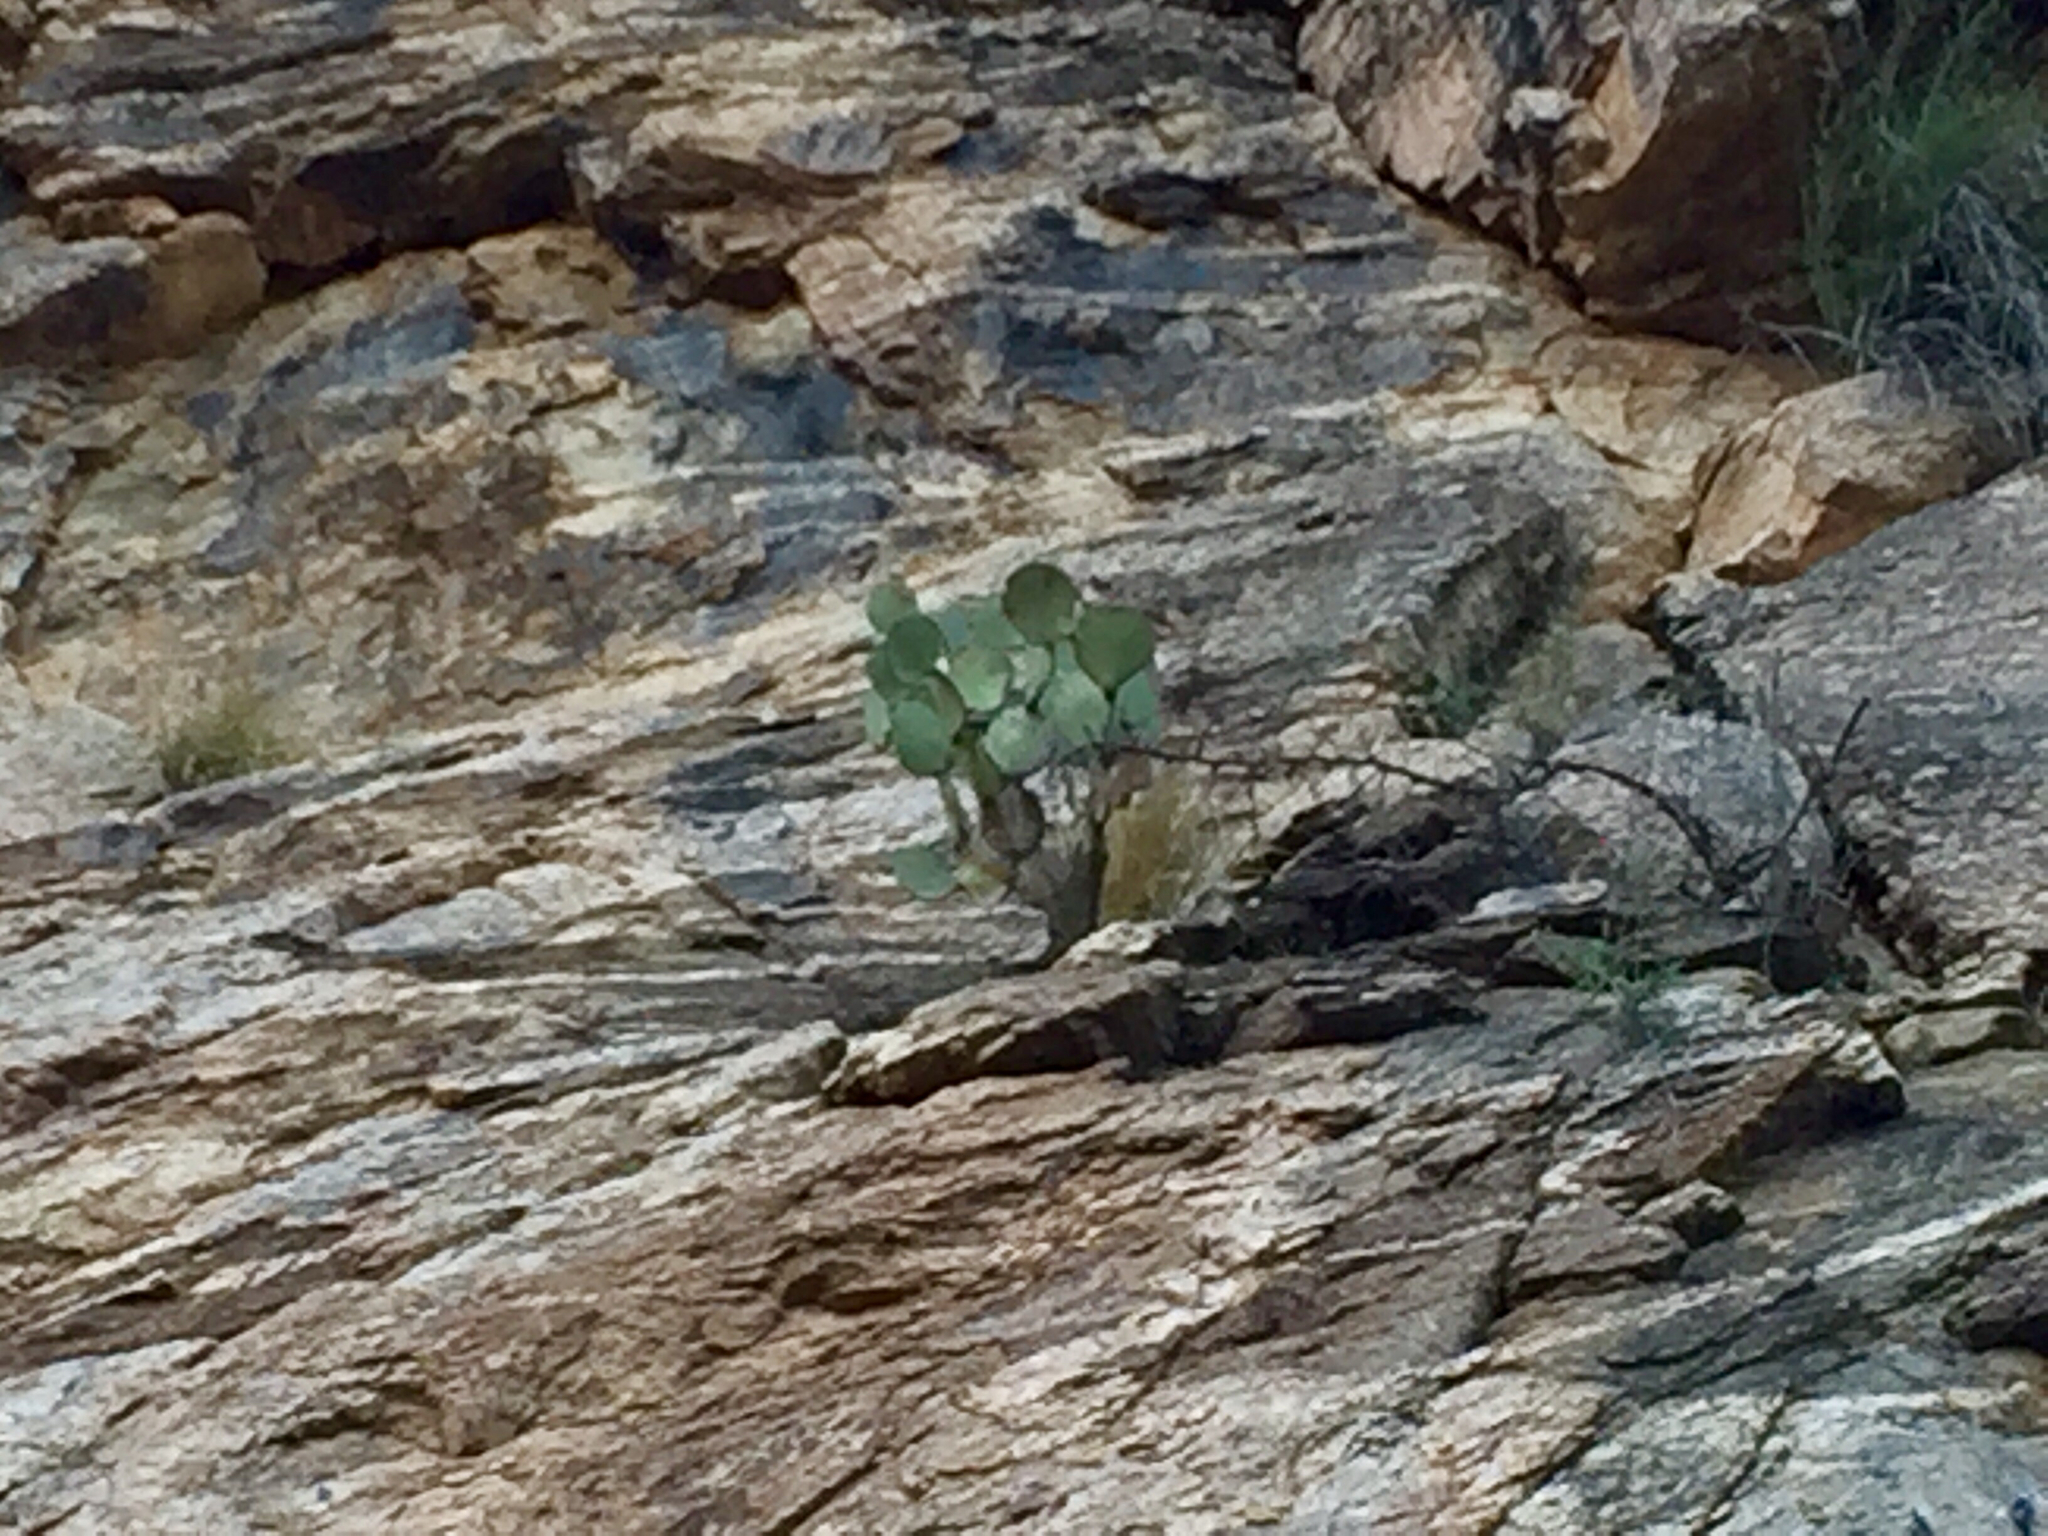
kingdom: Plantae
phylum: Tracheophyta
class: Magnoliopsida
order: Caryophyllales
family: Cactaceae
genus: Opuntia
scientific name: Opuntia chlorotica
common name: Dollar-joint prickly-pear
